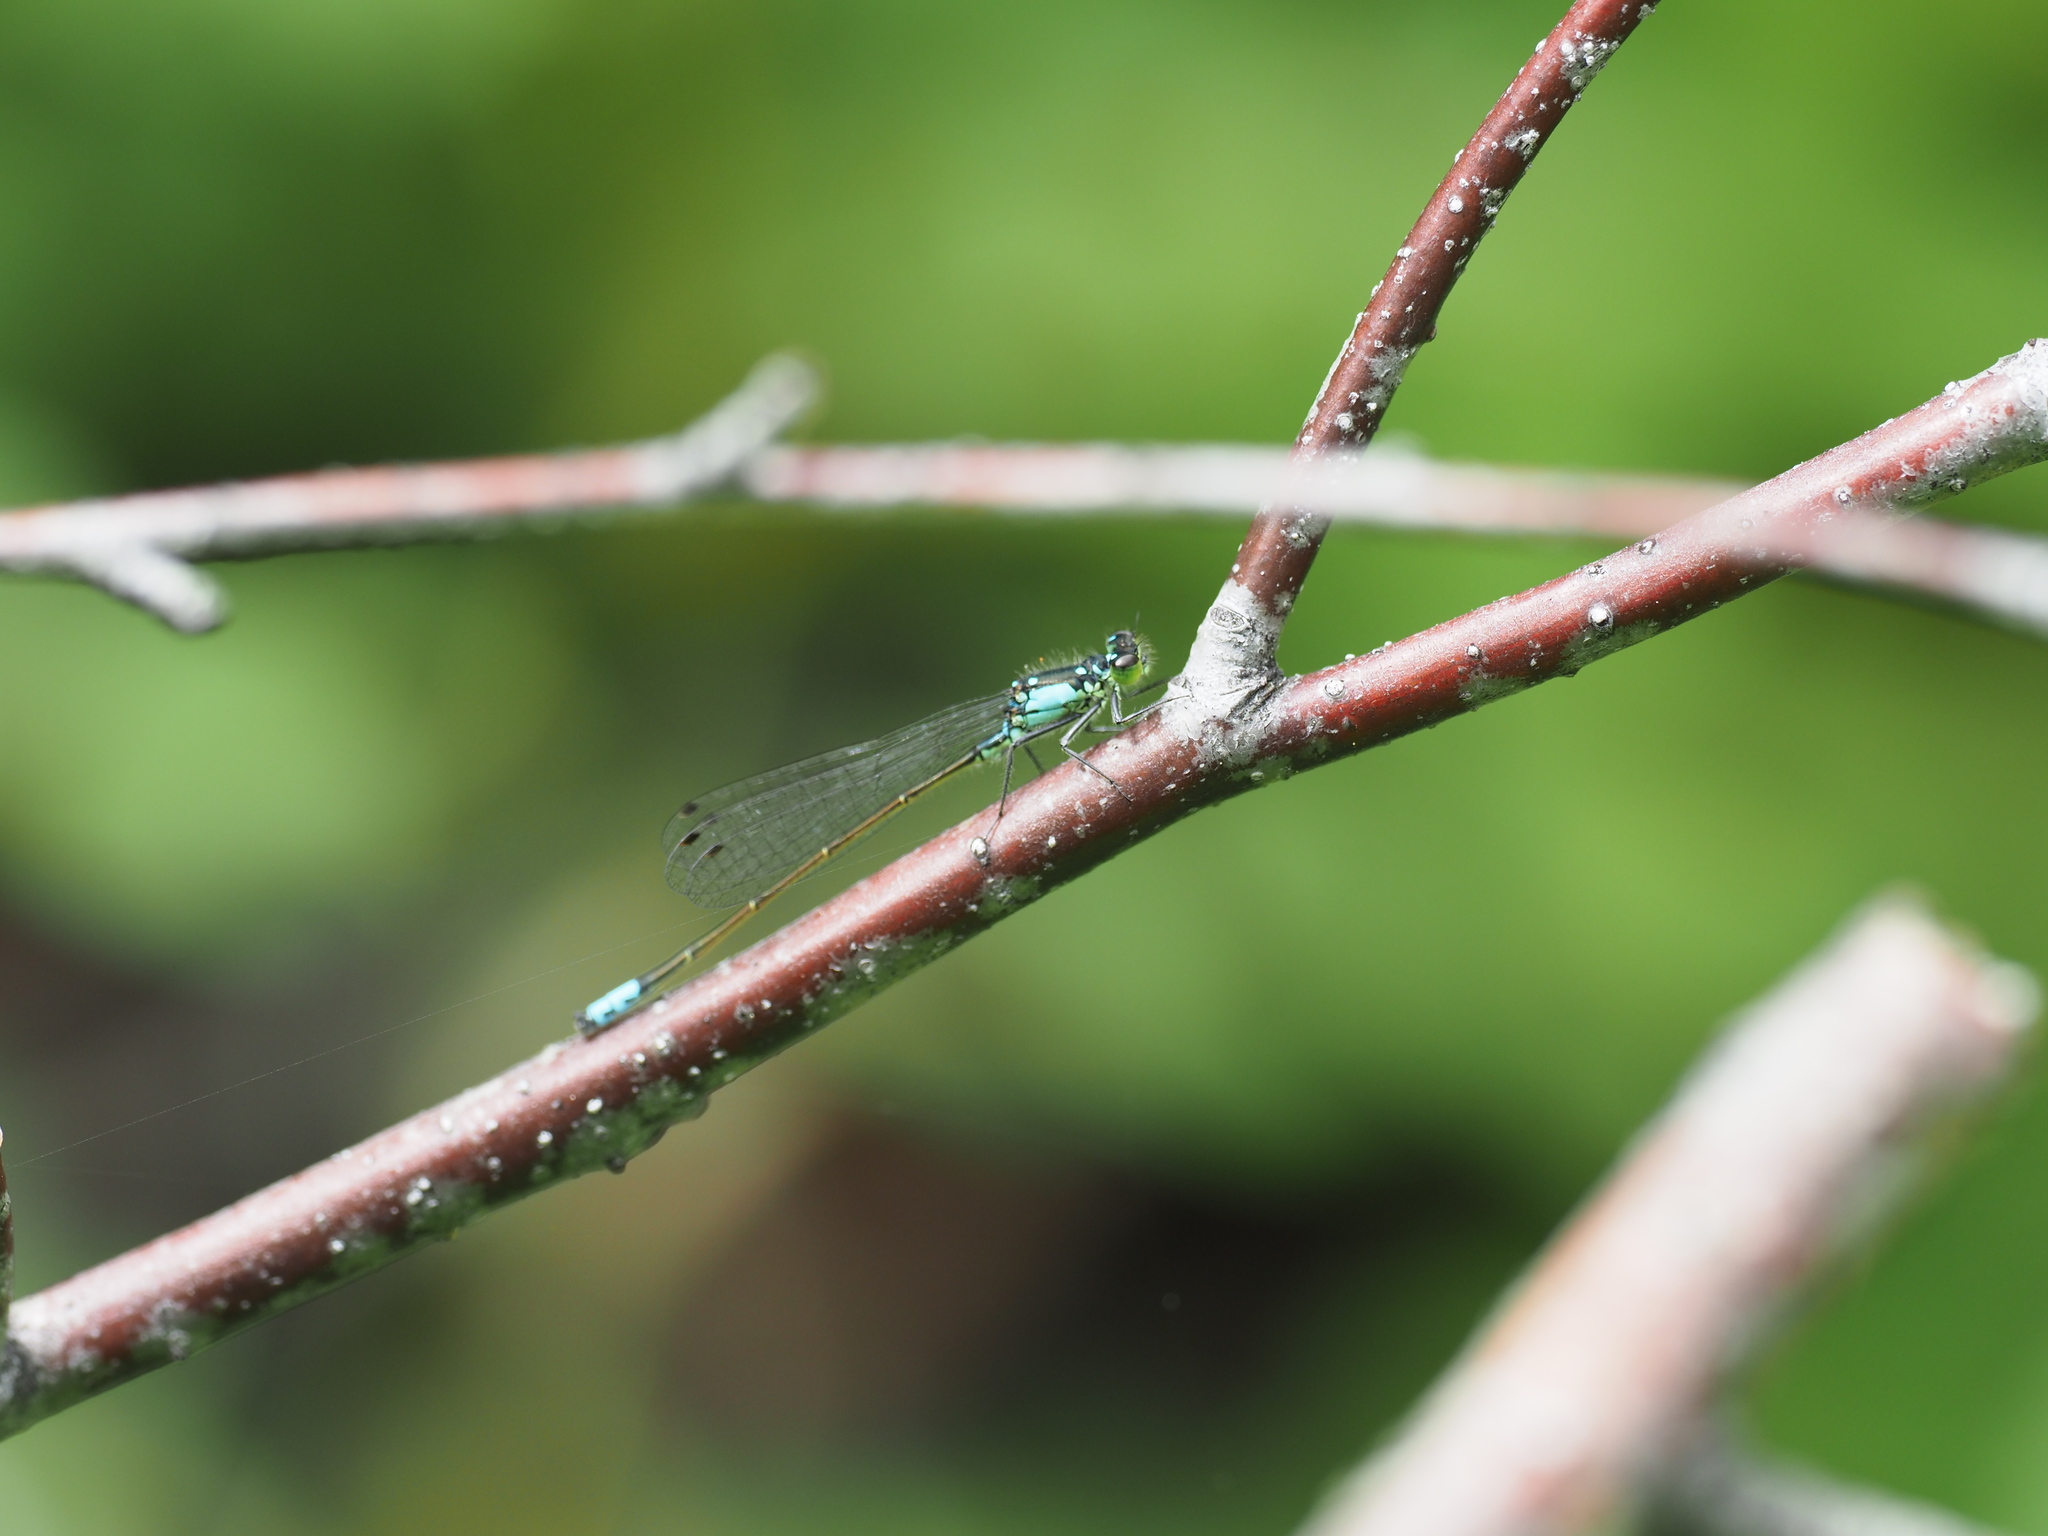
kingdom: Animalia
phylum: Arthropoda
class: Insecta
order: Odonata
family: Coenagrionidae
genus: Ischnura
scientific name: Ischnura cervula
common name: Pacific forktail
